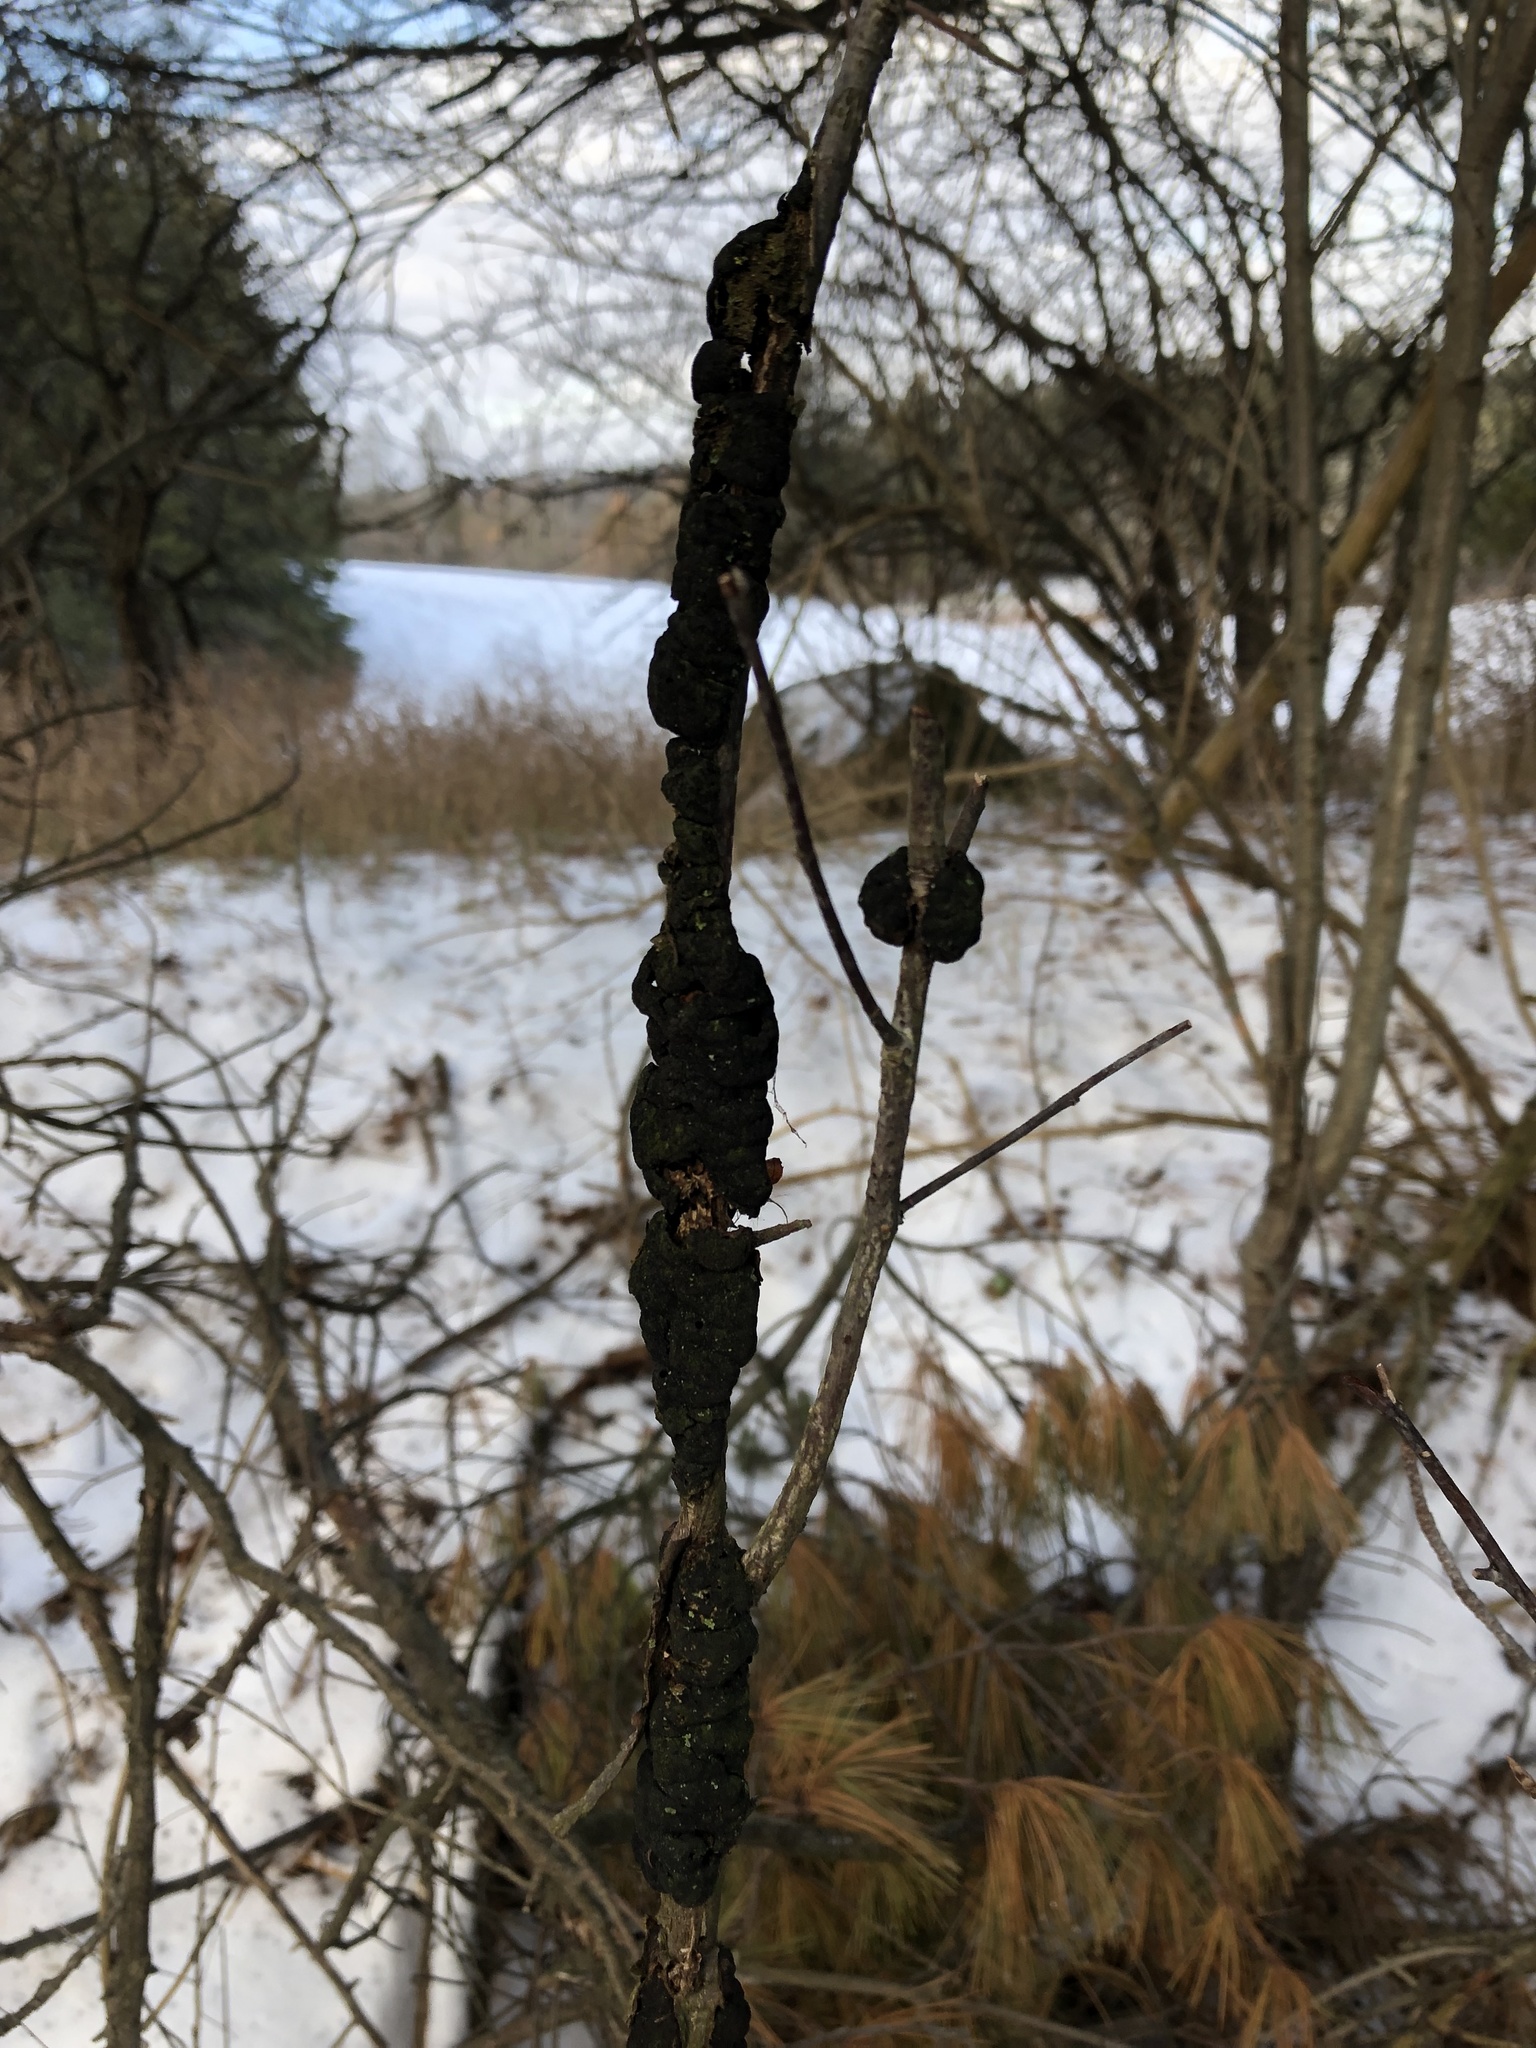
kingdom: Fungi
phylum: Ascomycota
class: Dothideomycetes
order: Venturiales
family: Venturiaceae
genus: Apiosporina
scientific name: Apiosporina morbosa
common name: Black knot
